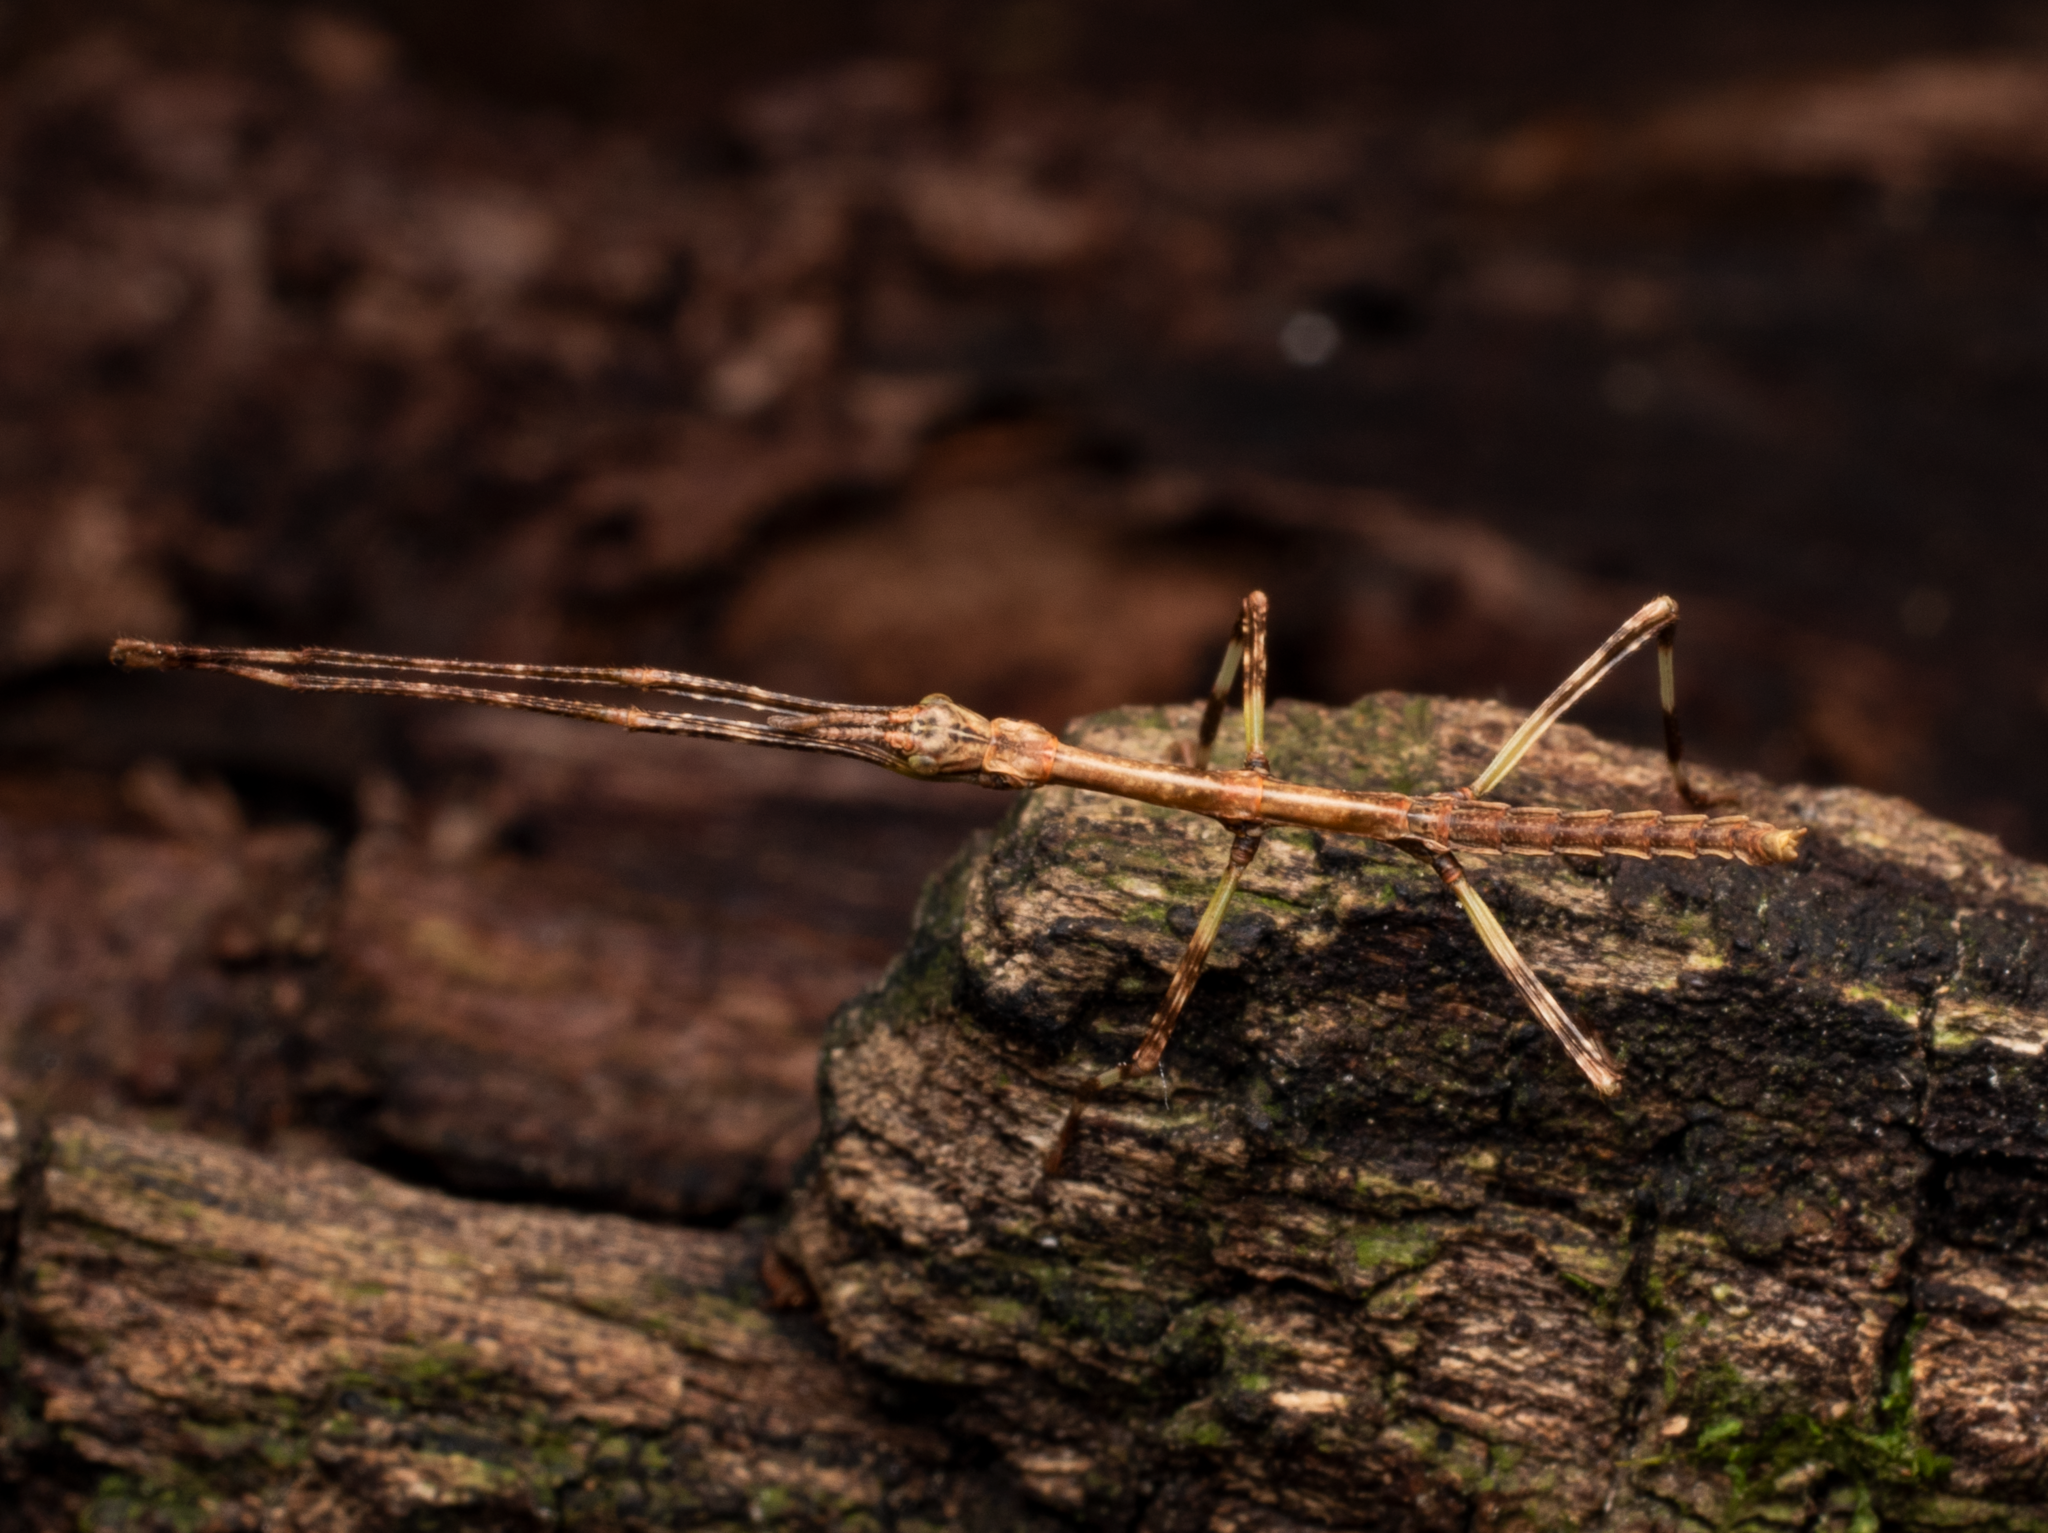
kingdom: Animalia
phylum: Arthropoda
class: Insecta
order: Phasmida
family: Phasmatidae
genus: Clitarchus
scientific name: Clitarchus hookeri
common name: Smooth stick insect
